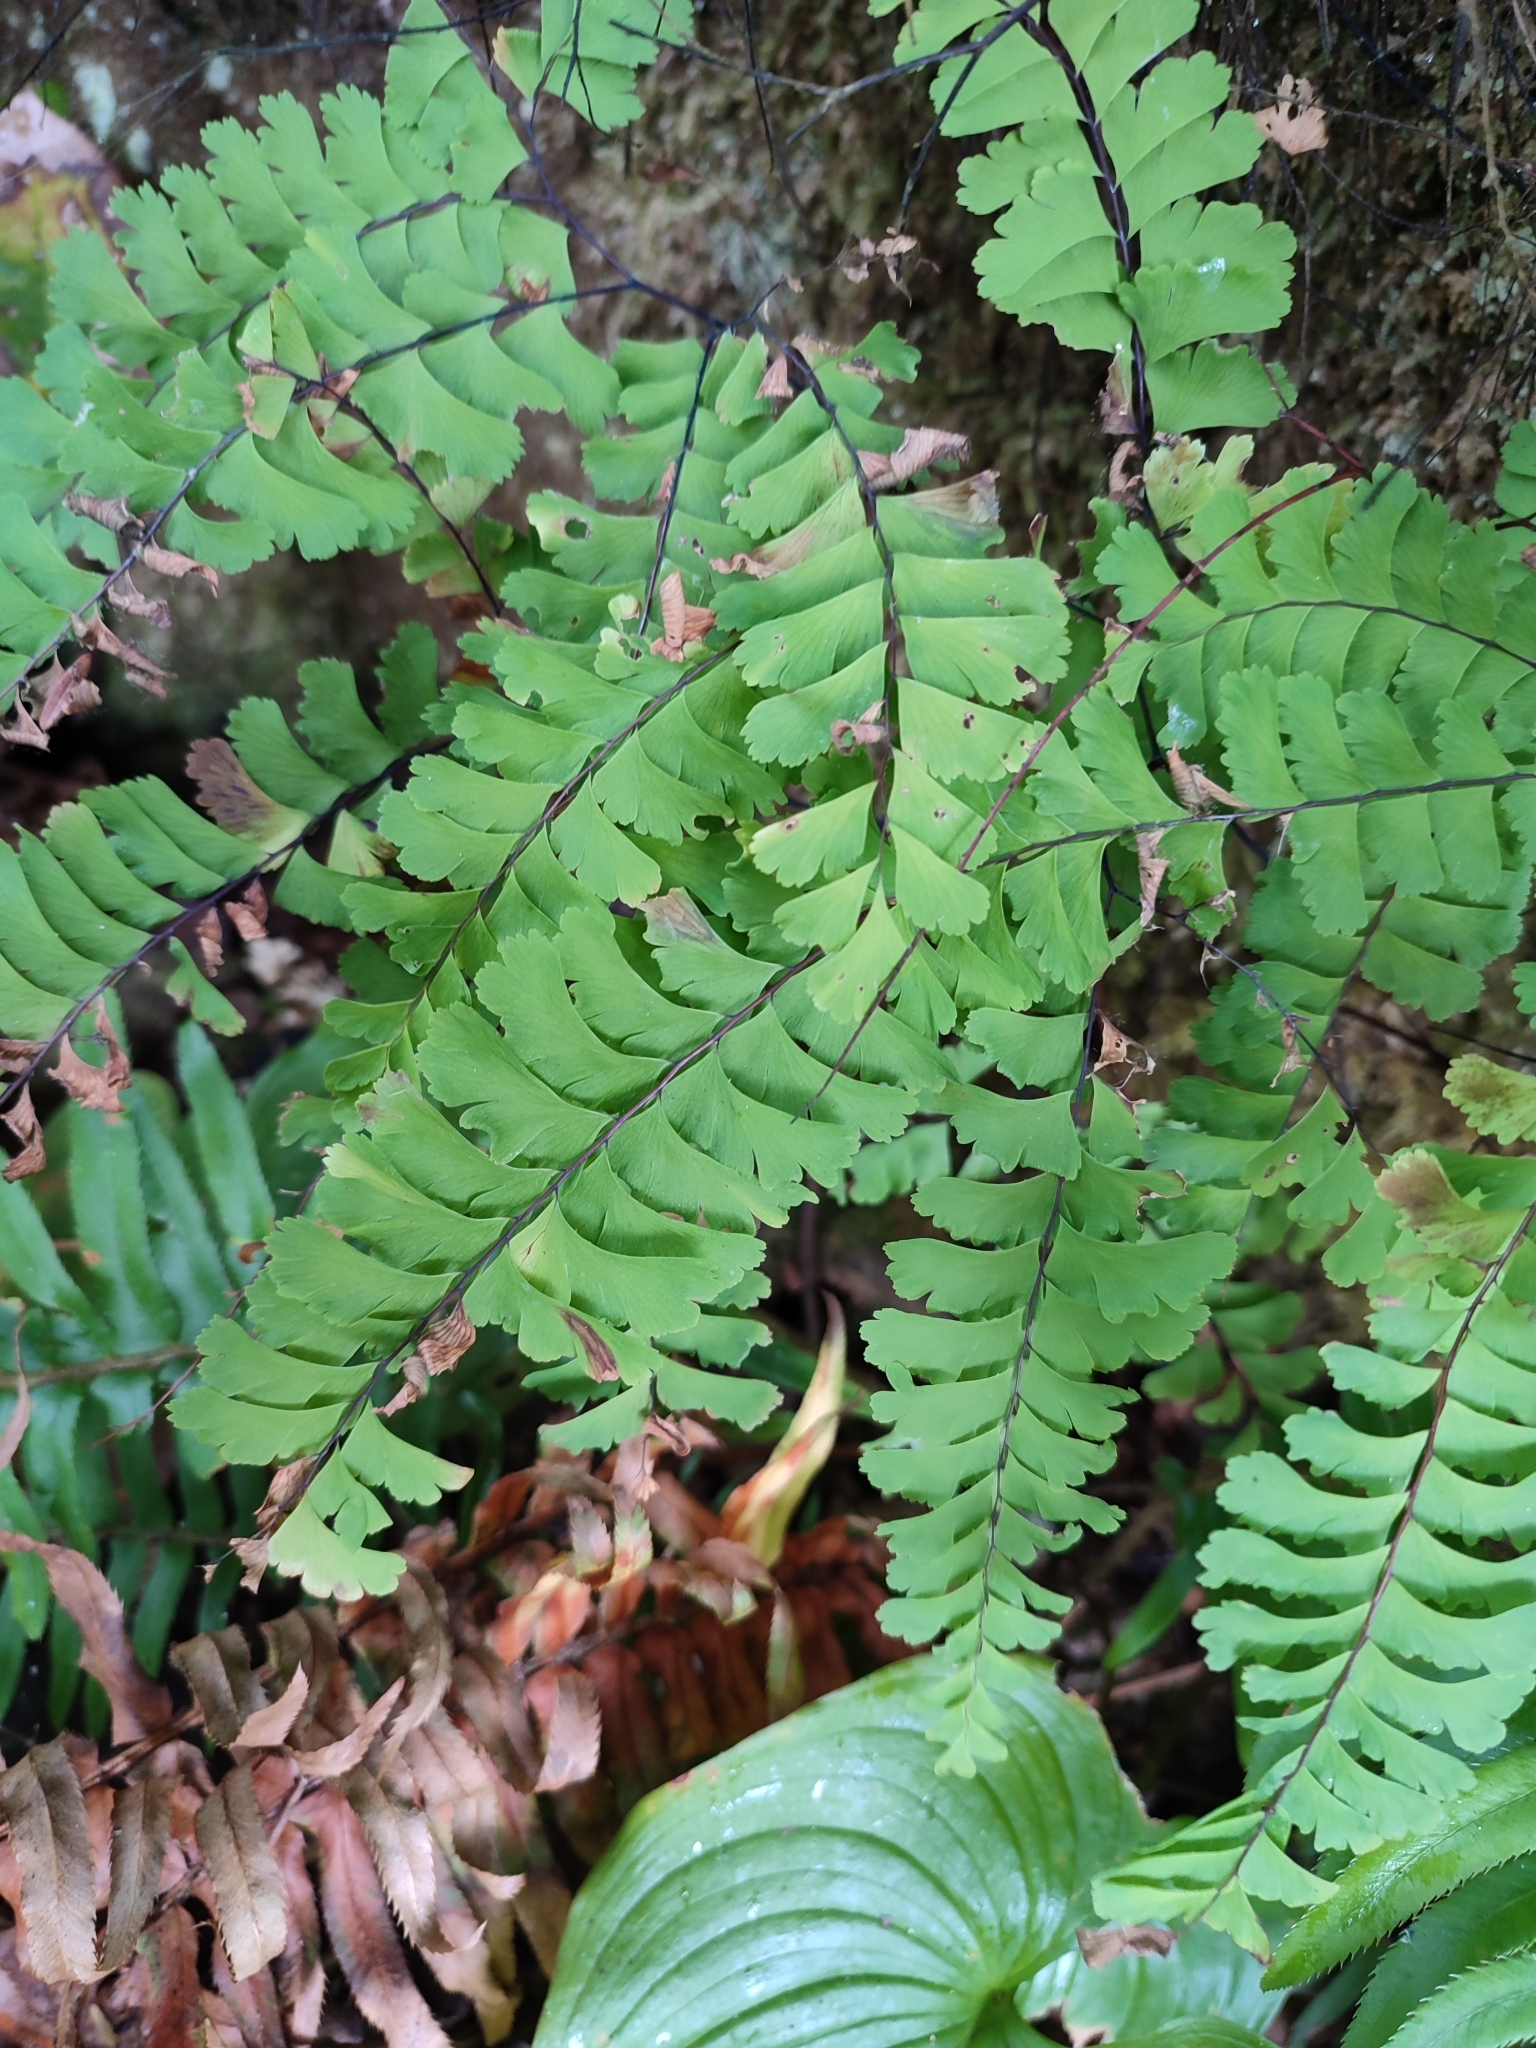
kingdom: Plantae
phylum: Tracheophyta
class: Polypodiopsida
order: Polypodiales
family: Pteridaceae
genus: Adiantum
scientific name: Adiantum aleuticum
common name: Aleutian maidenhair fern
